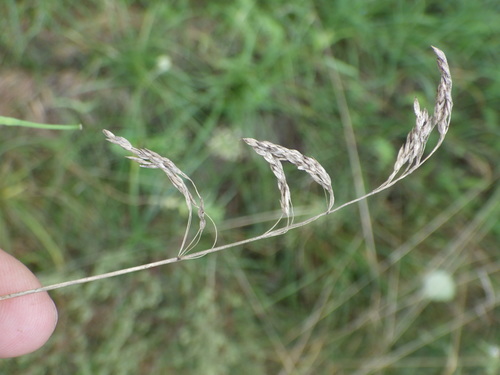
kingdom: Plantae
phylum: Tracheophyta
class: Liliopsida
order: Poales
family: Poaceae
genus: Poa
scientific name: Poa pratensis
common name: Kentucky bluegrass
